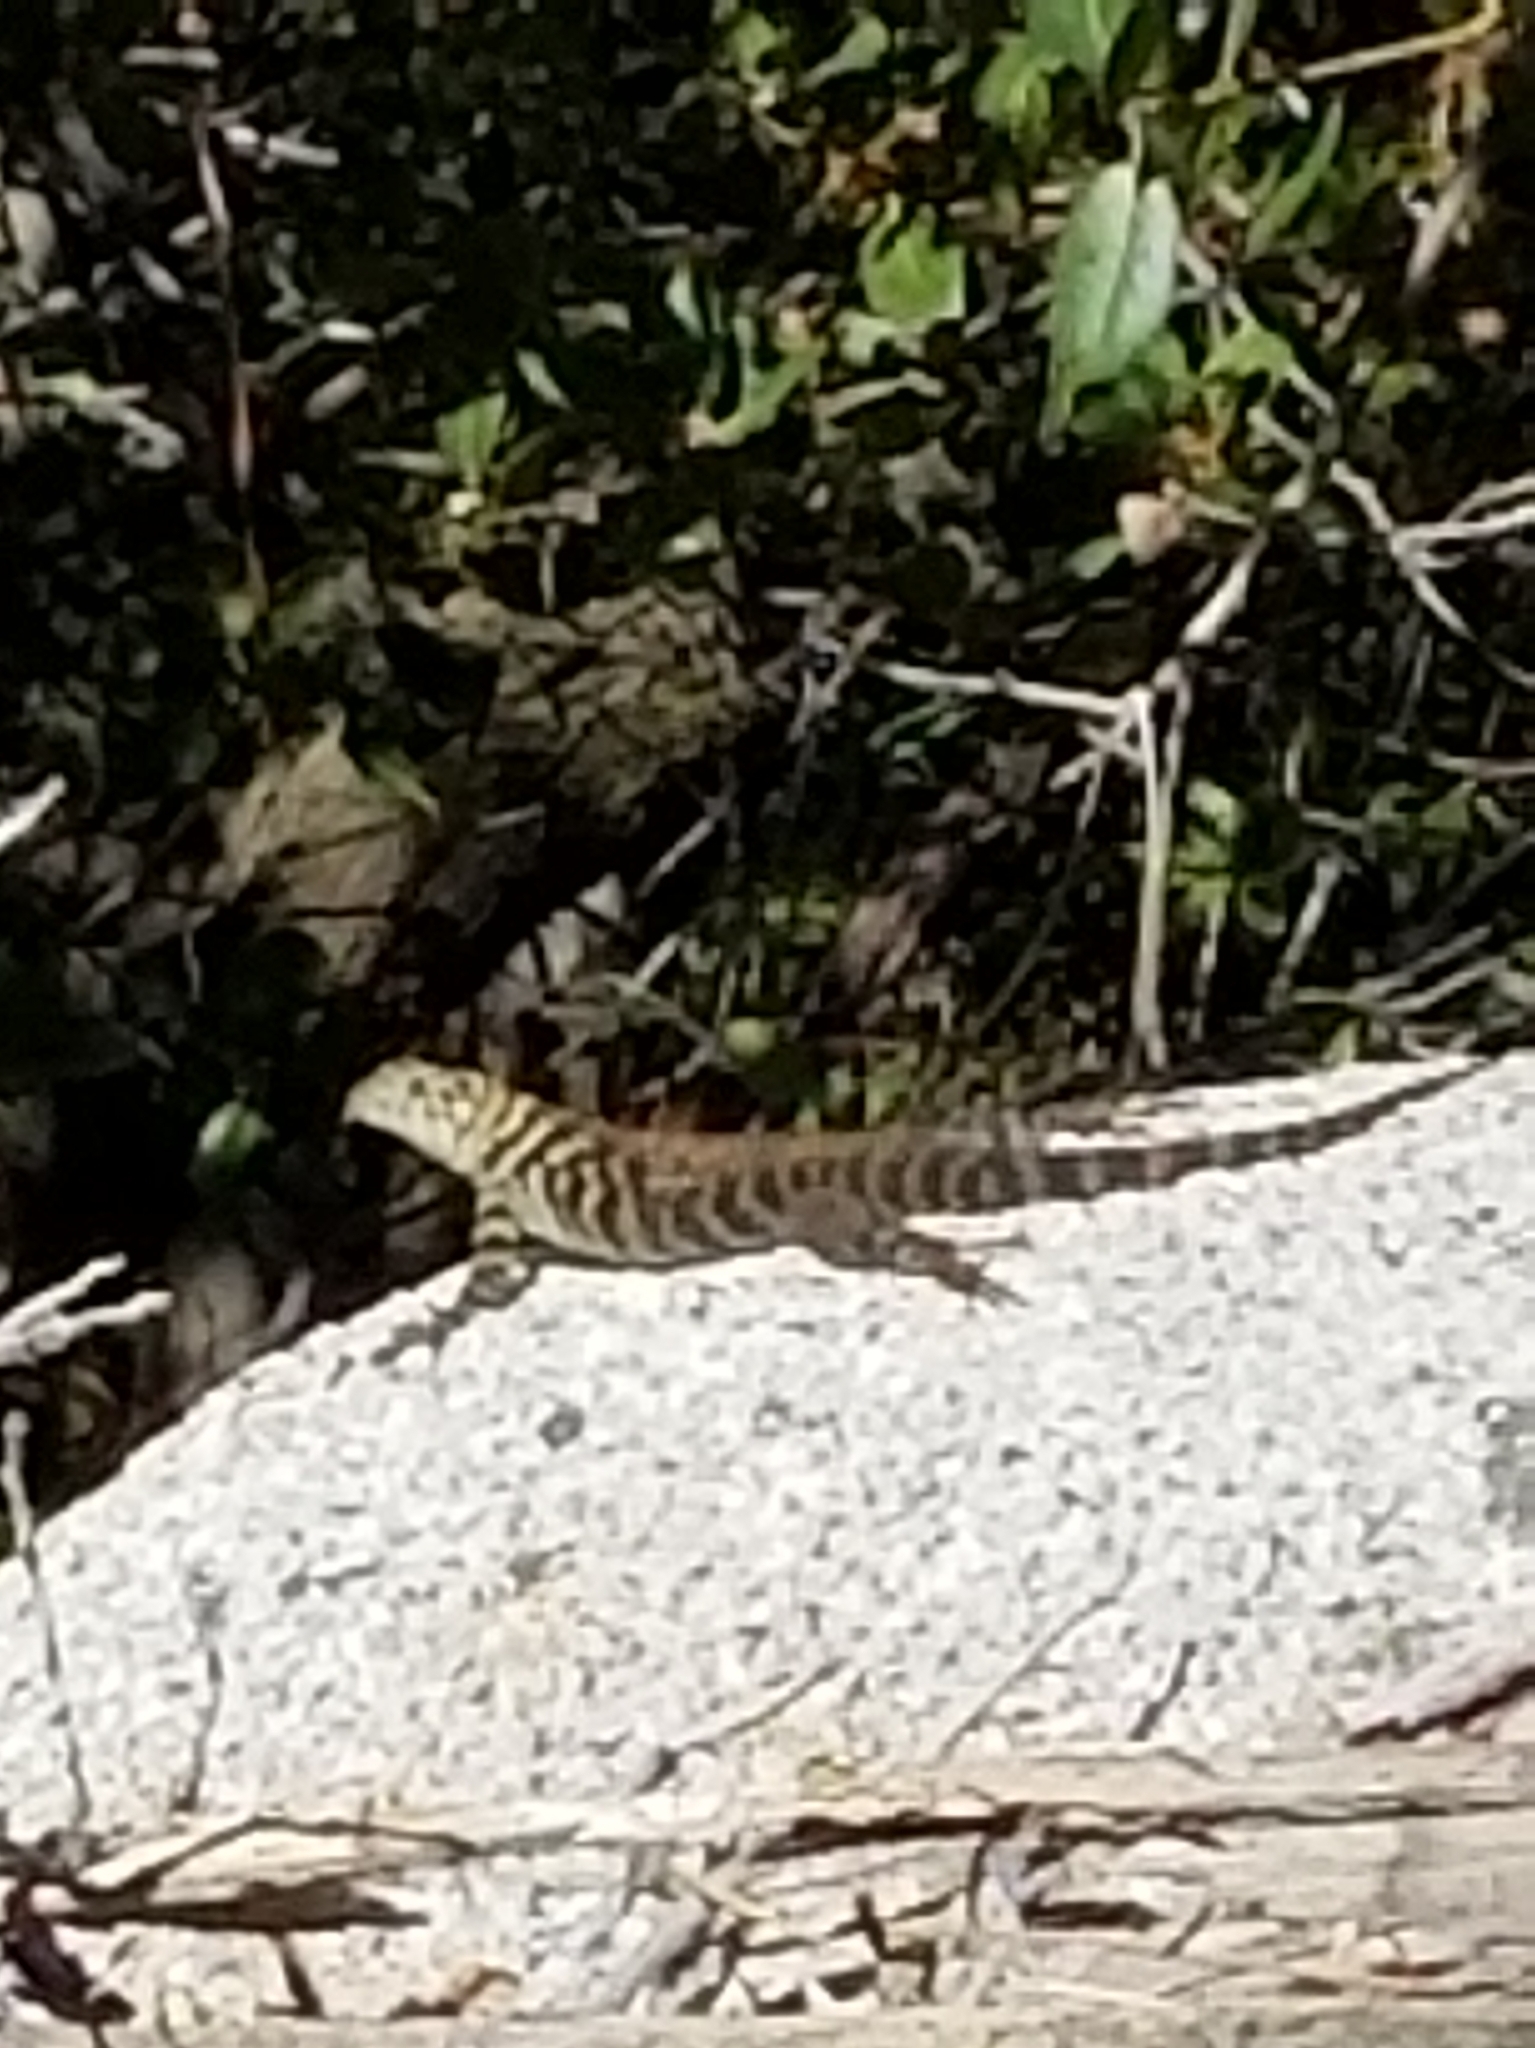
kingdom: Animalia
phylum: Chordata
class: Squamata
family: Phrynosomatidae
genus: Sceloporus
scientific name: Sceloporus orcutti
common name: Granite spiny lizard
